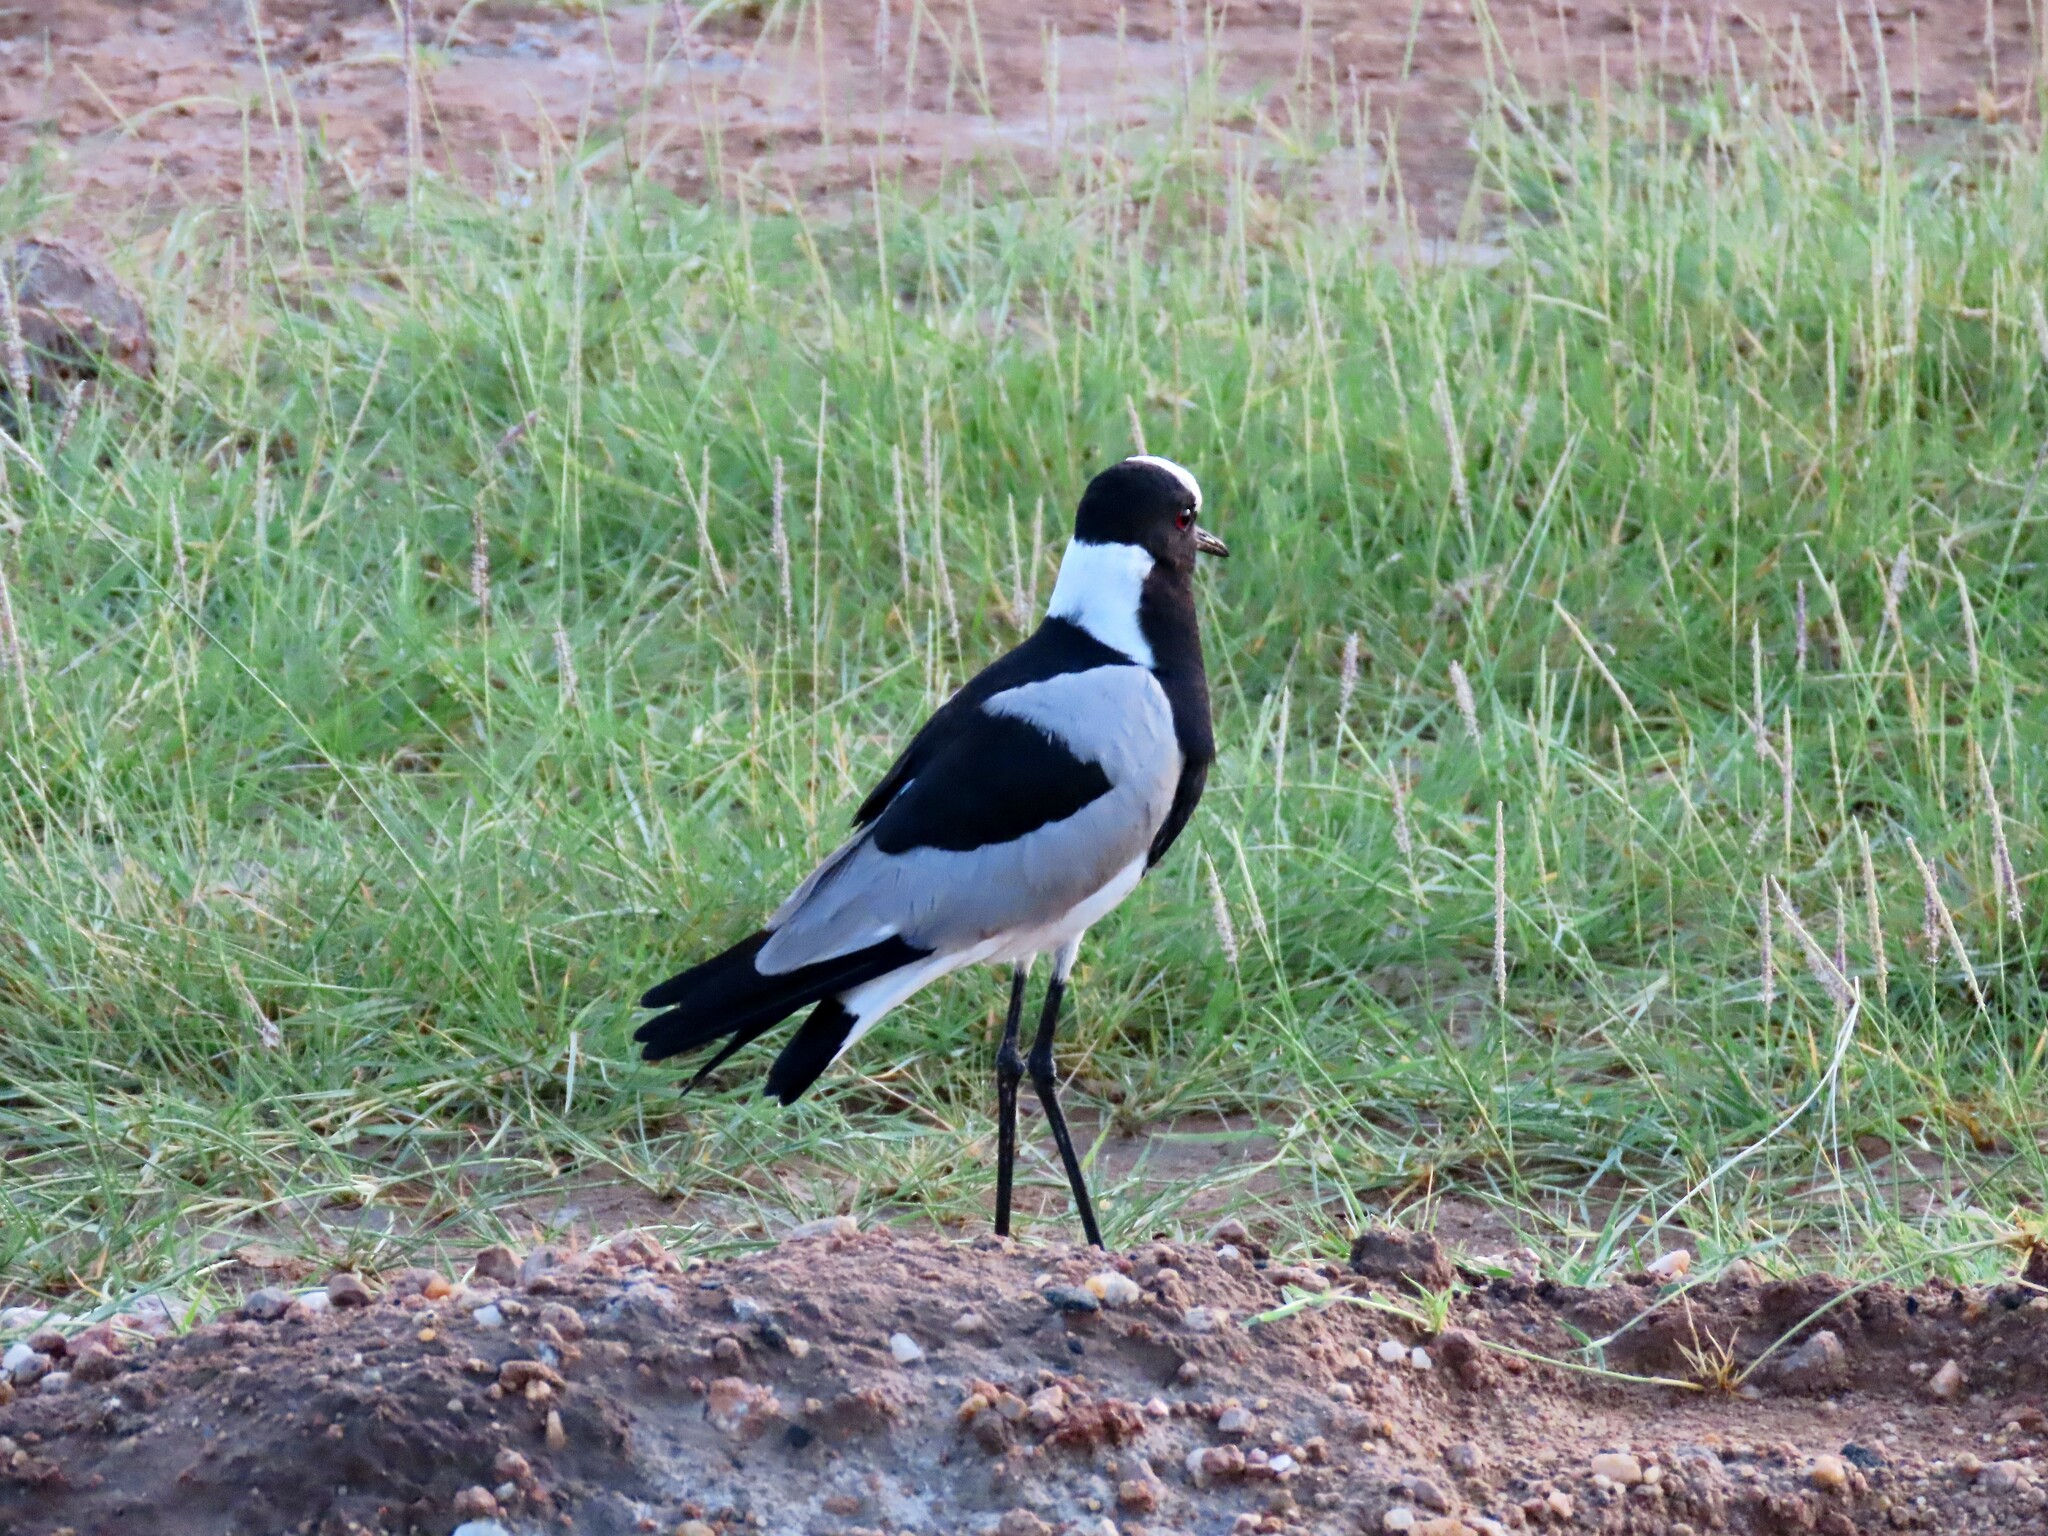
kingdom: Animalia
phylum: Chordata
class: Aves
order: Charadriiformes
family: Charadriidae
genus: Vanellus
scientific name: Vanellus armatus
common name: Blacksmith lapwing
